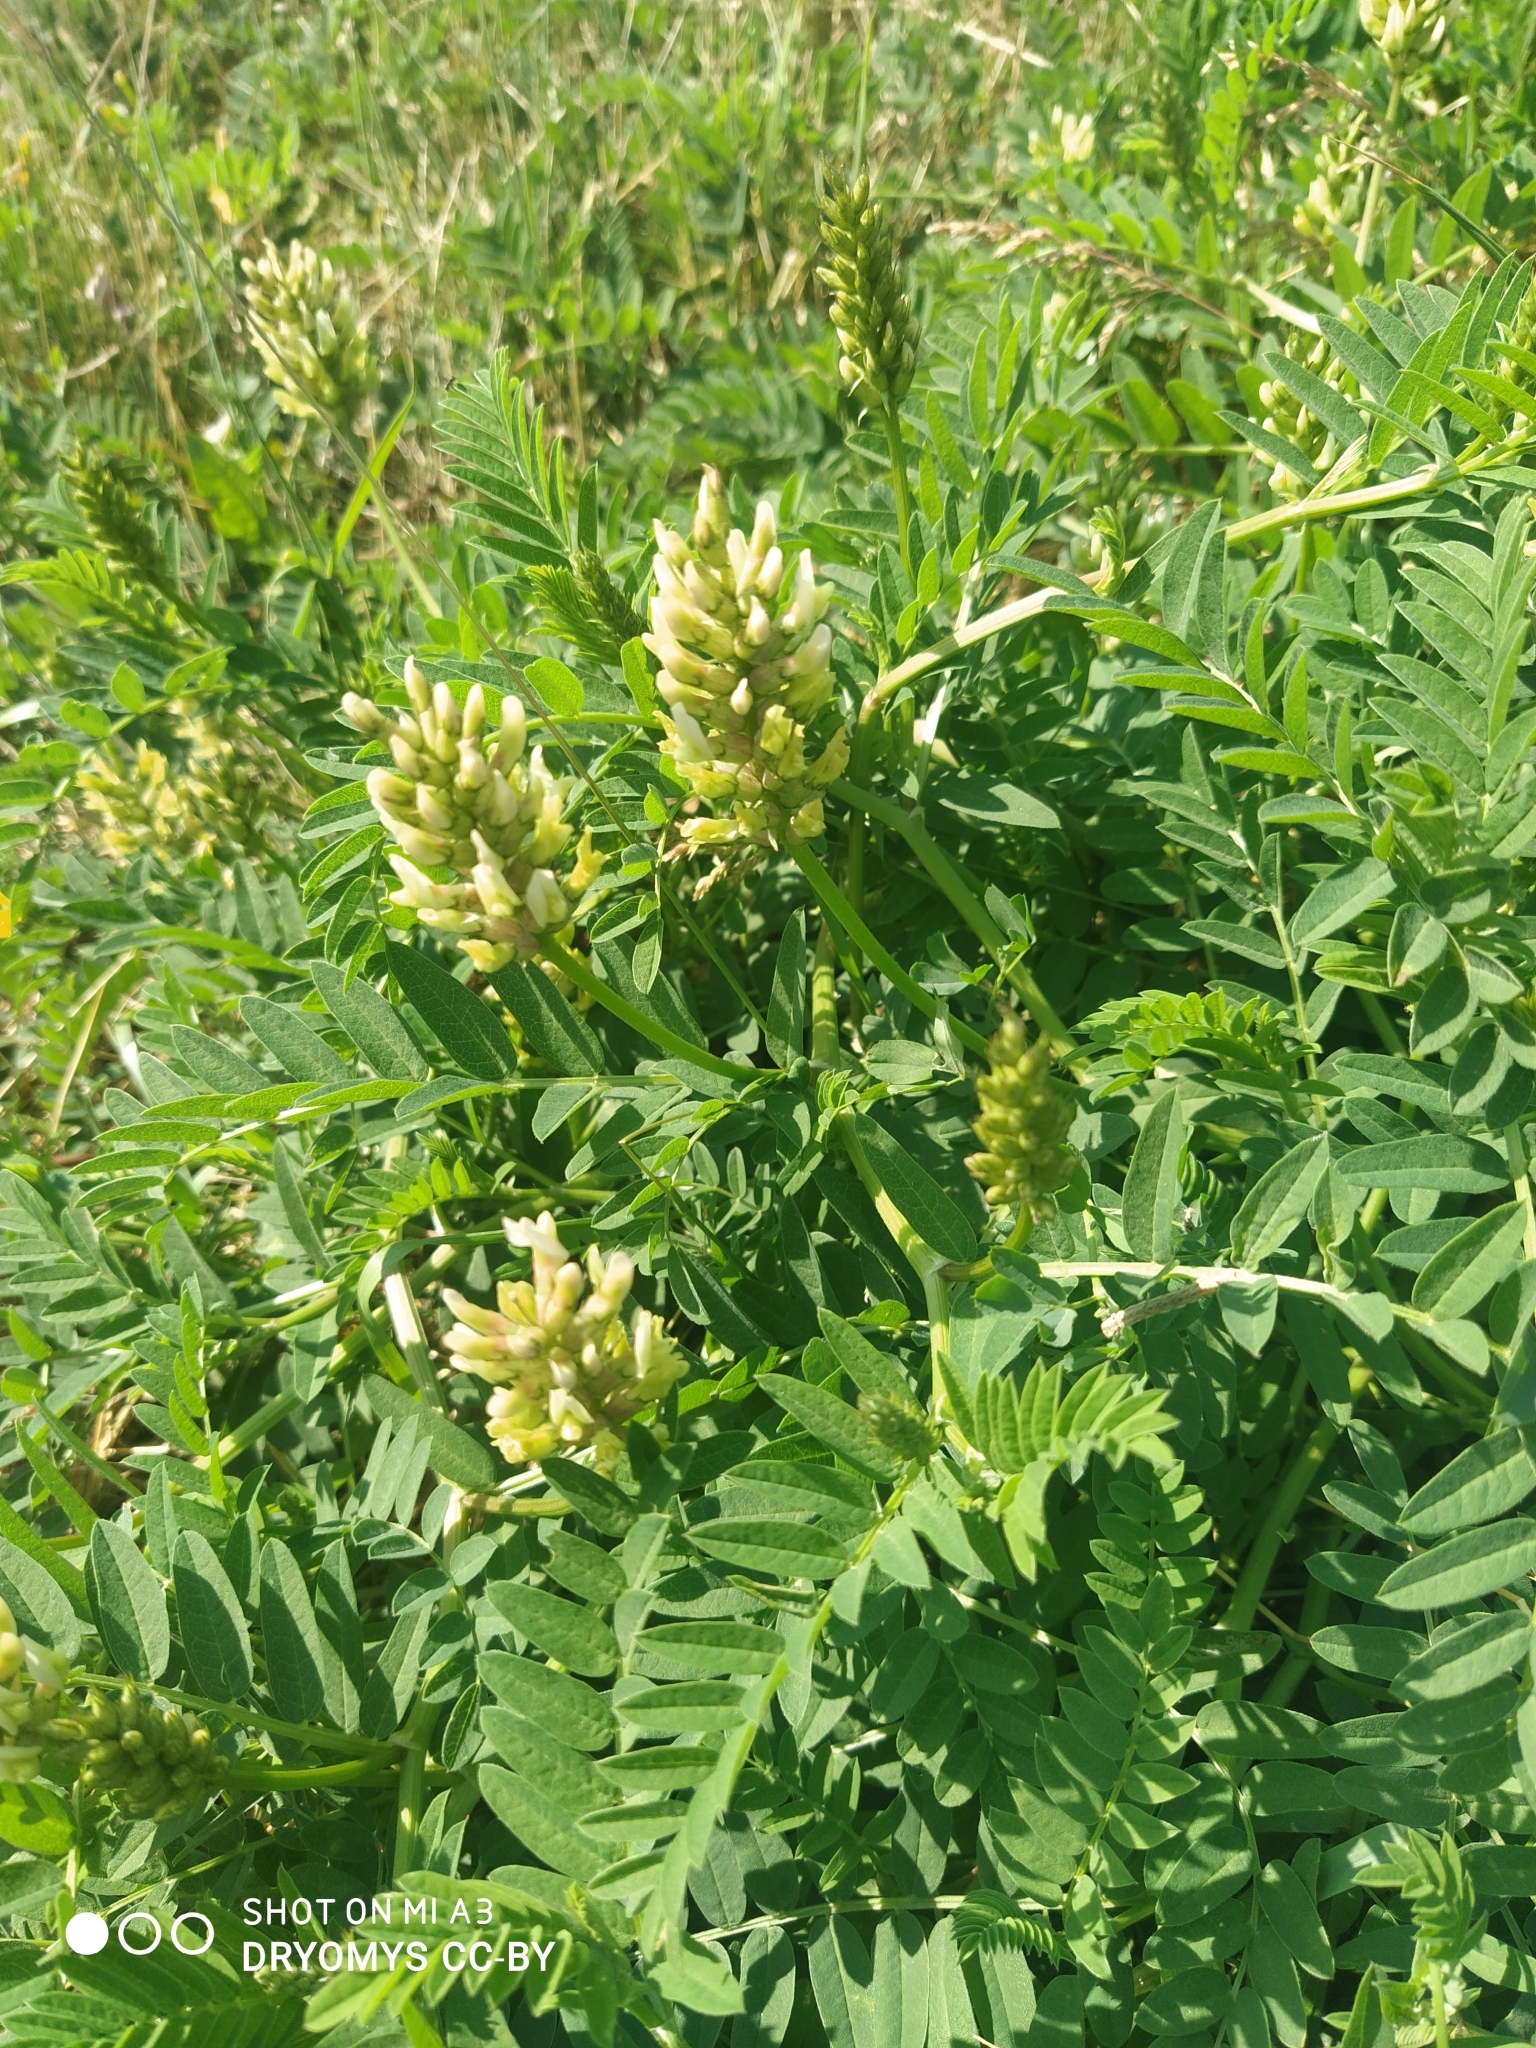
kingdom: Plantae
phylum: Tracheophyta
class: Magnoliopsida
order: Fabales
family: Fabaceae
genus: Astragalus
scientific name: Astragalus cicer
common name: Chick-pea milk-vetch
